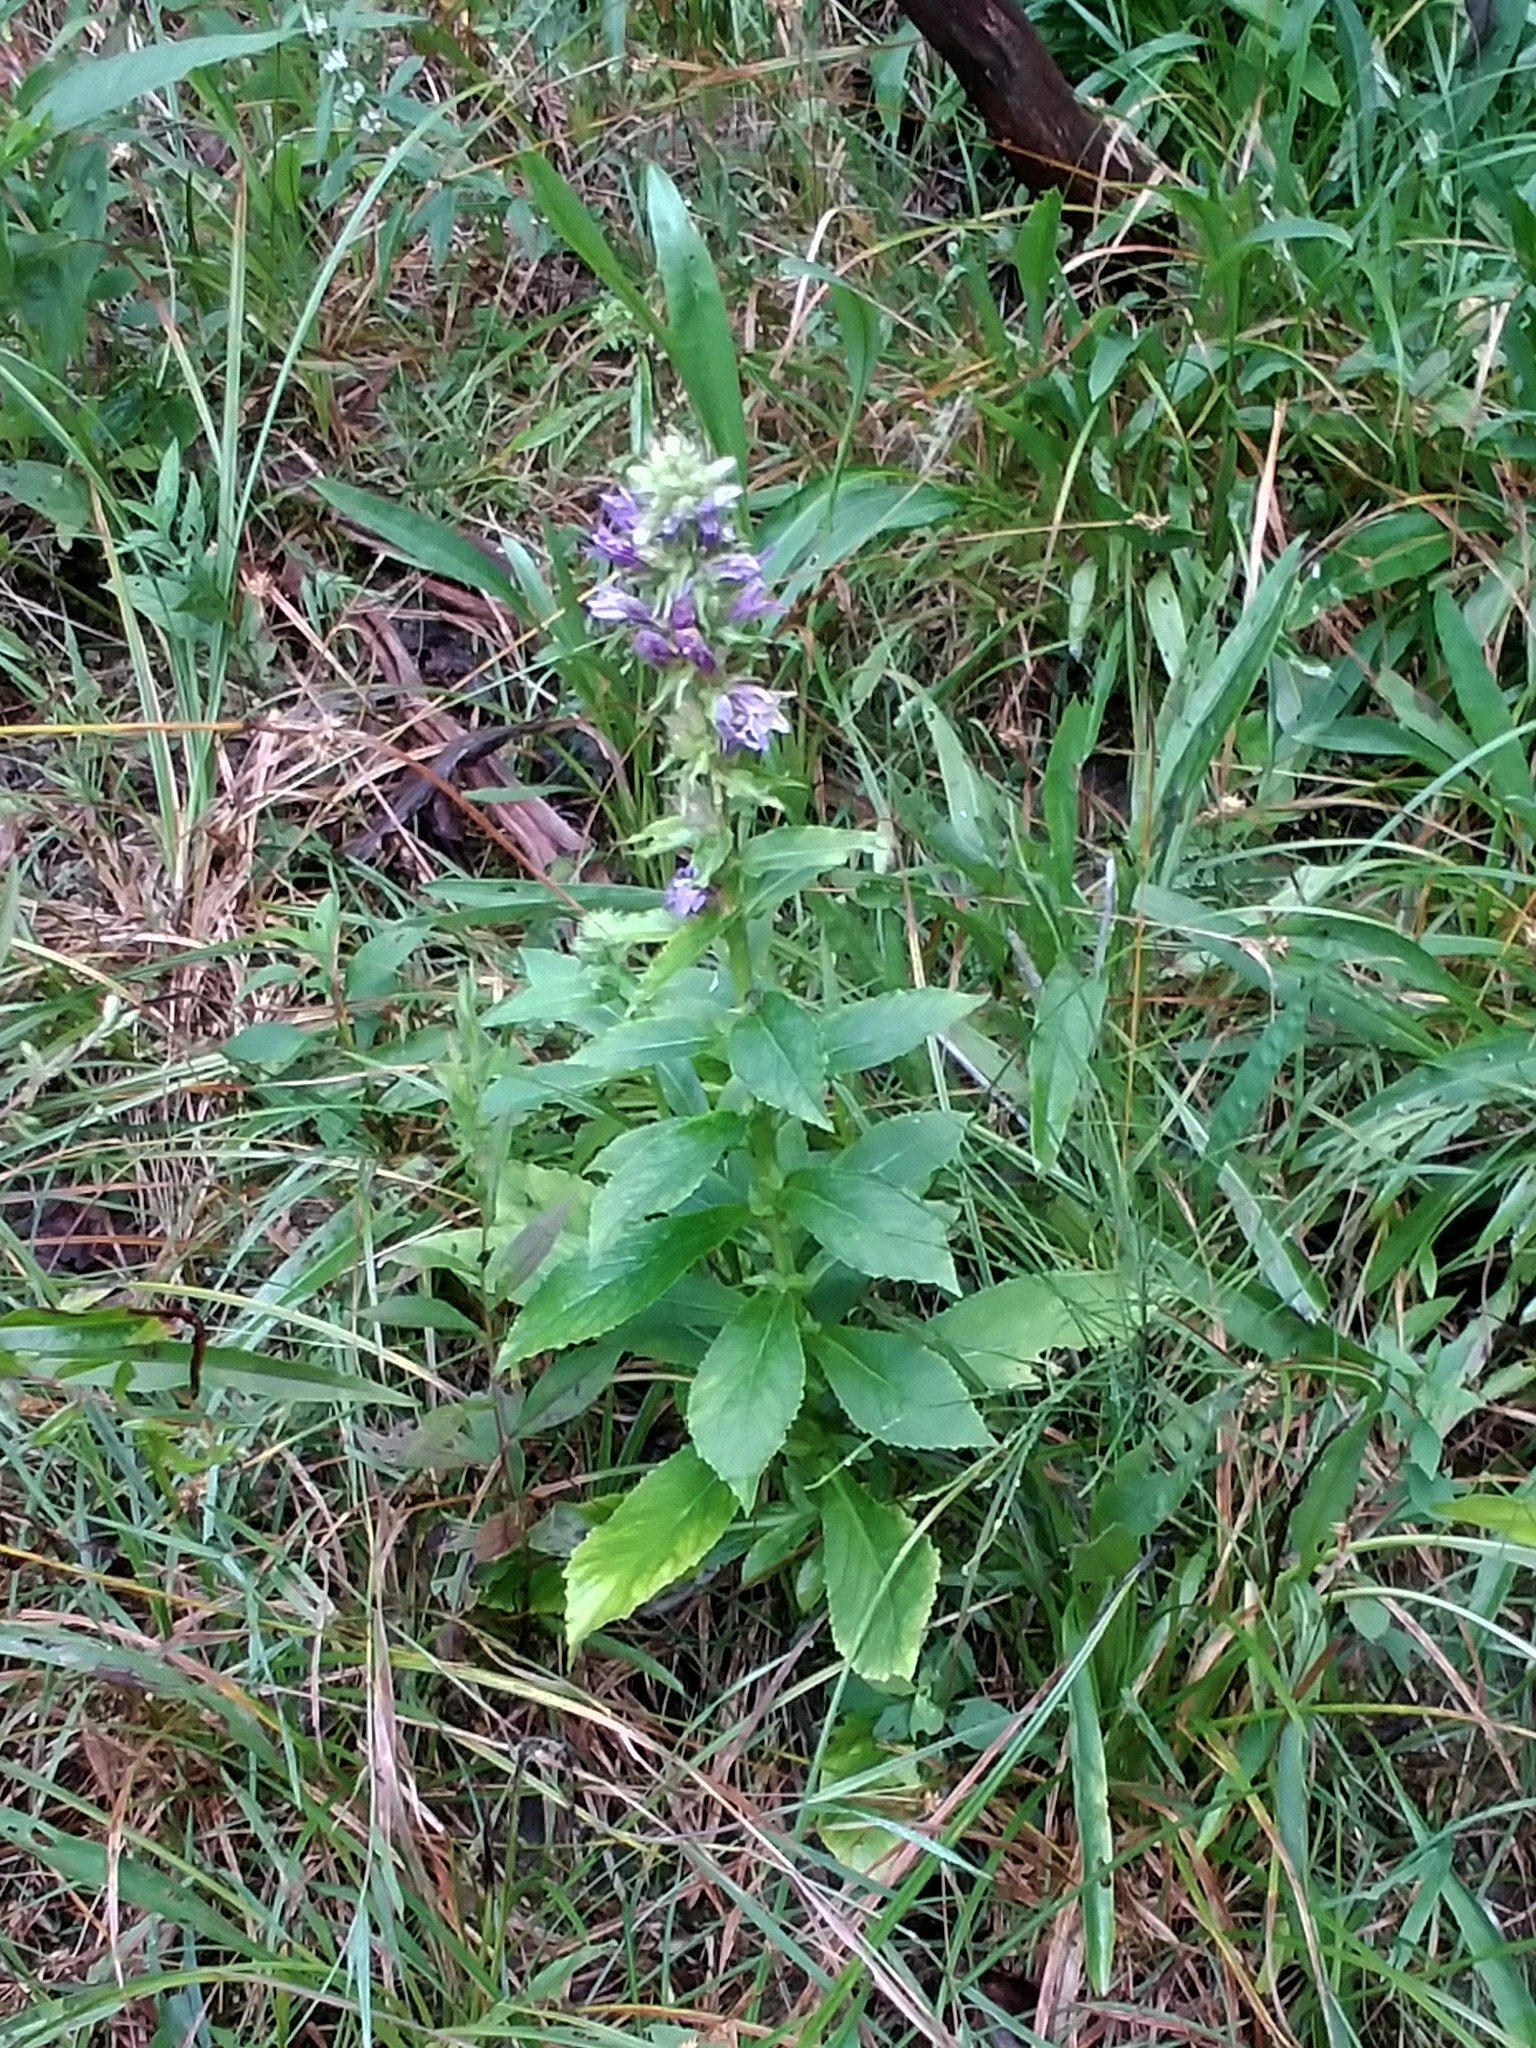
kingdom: Plantae
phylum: Tracheophyta
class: Magnoliopsida
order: Asterales
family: Campanulaceae
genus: Lobelia
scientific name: Lobelia siphilitica
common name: Great lobelia
